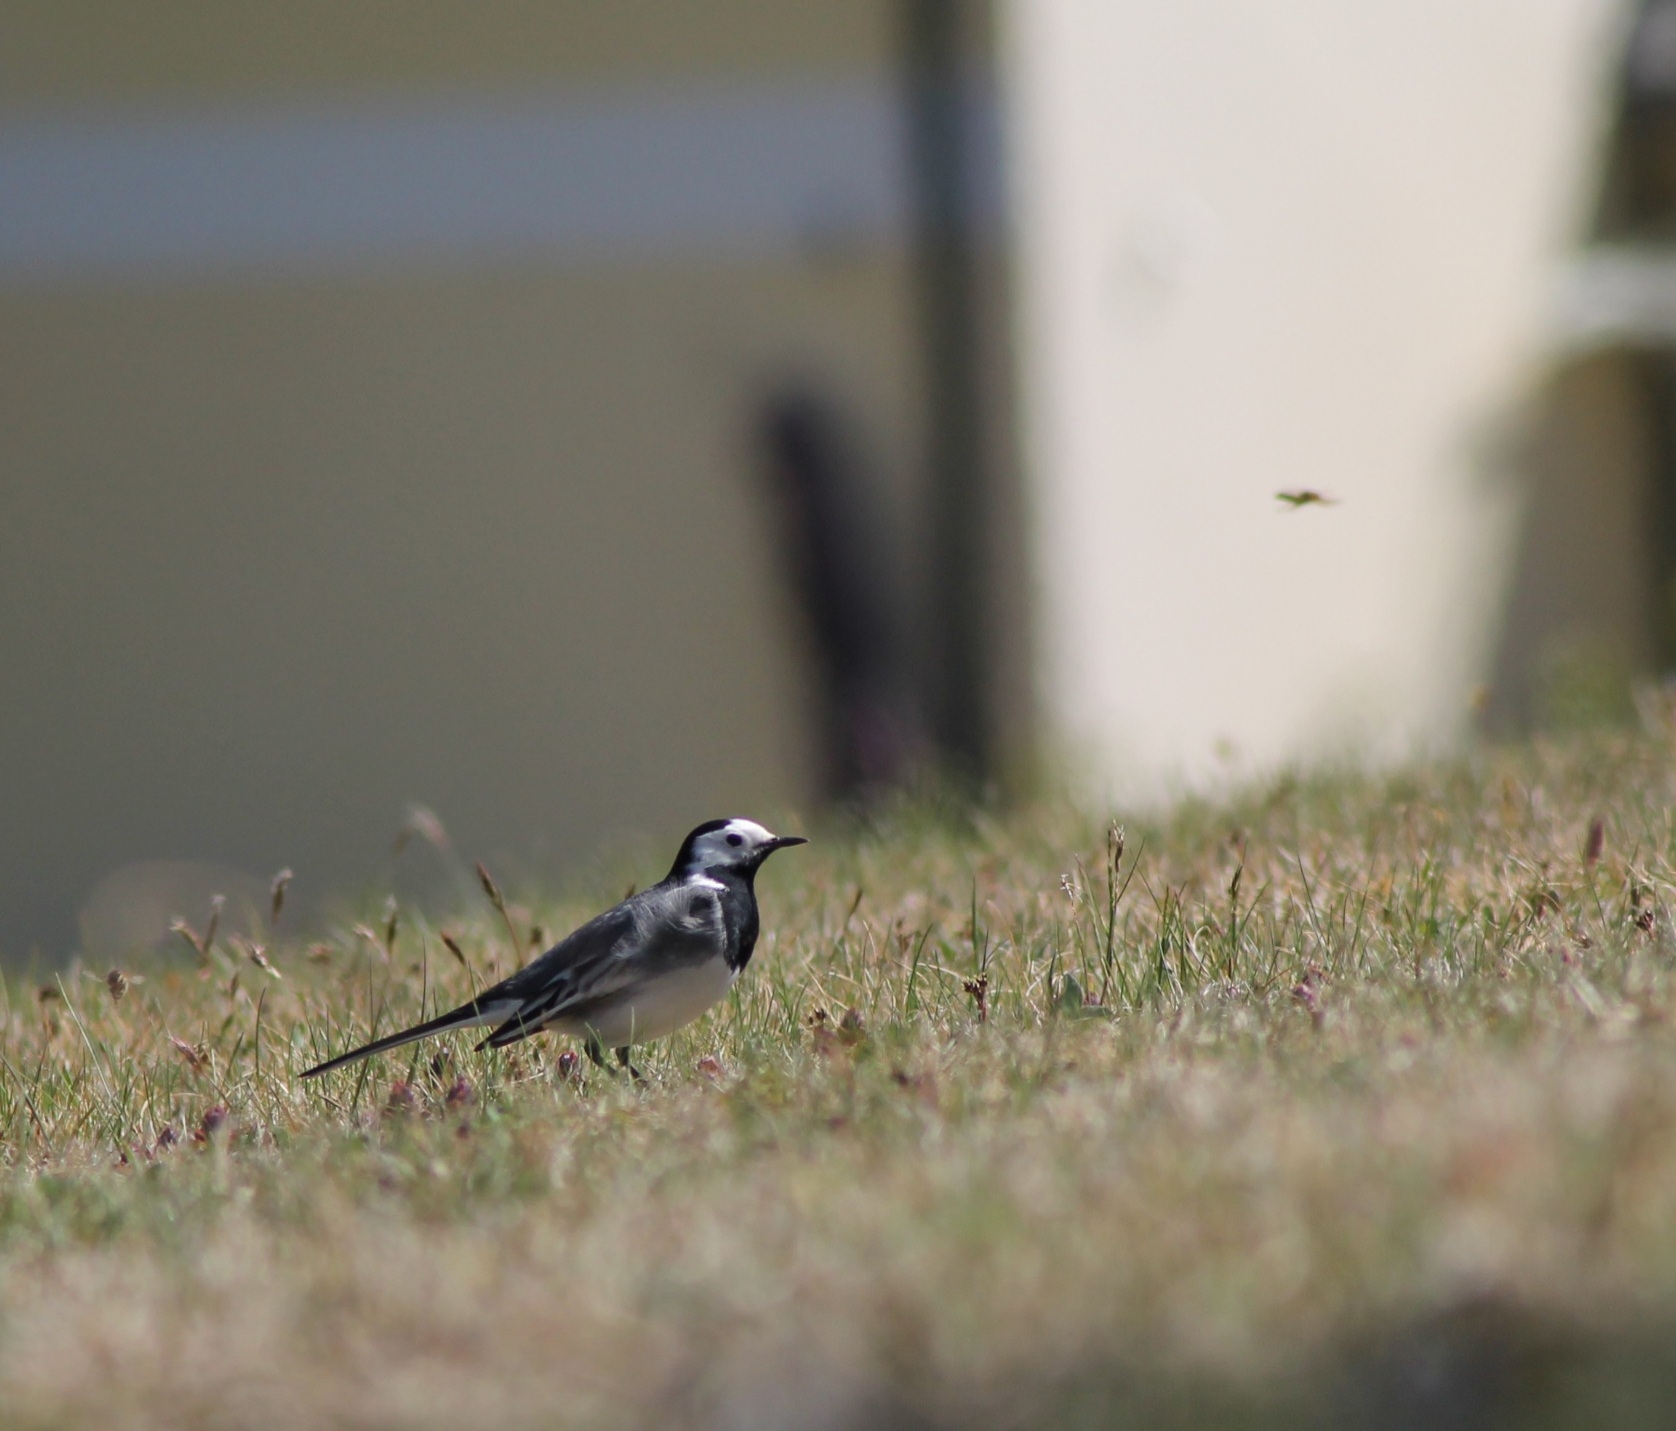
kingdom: Animalia
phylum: Chordata
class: Aves
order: Passeriformes
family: Motacillidae
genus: Motacilla
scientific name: Motacilla alba
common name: White wagtail
